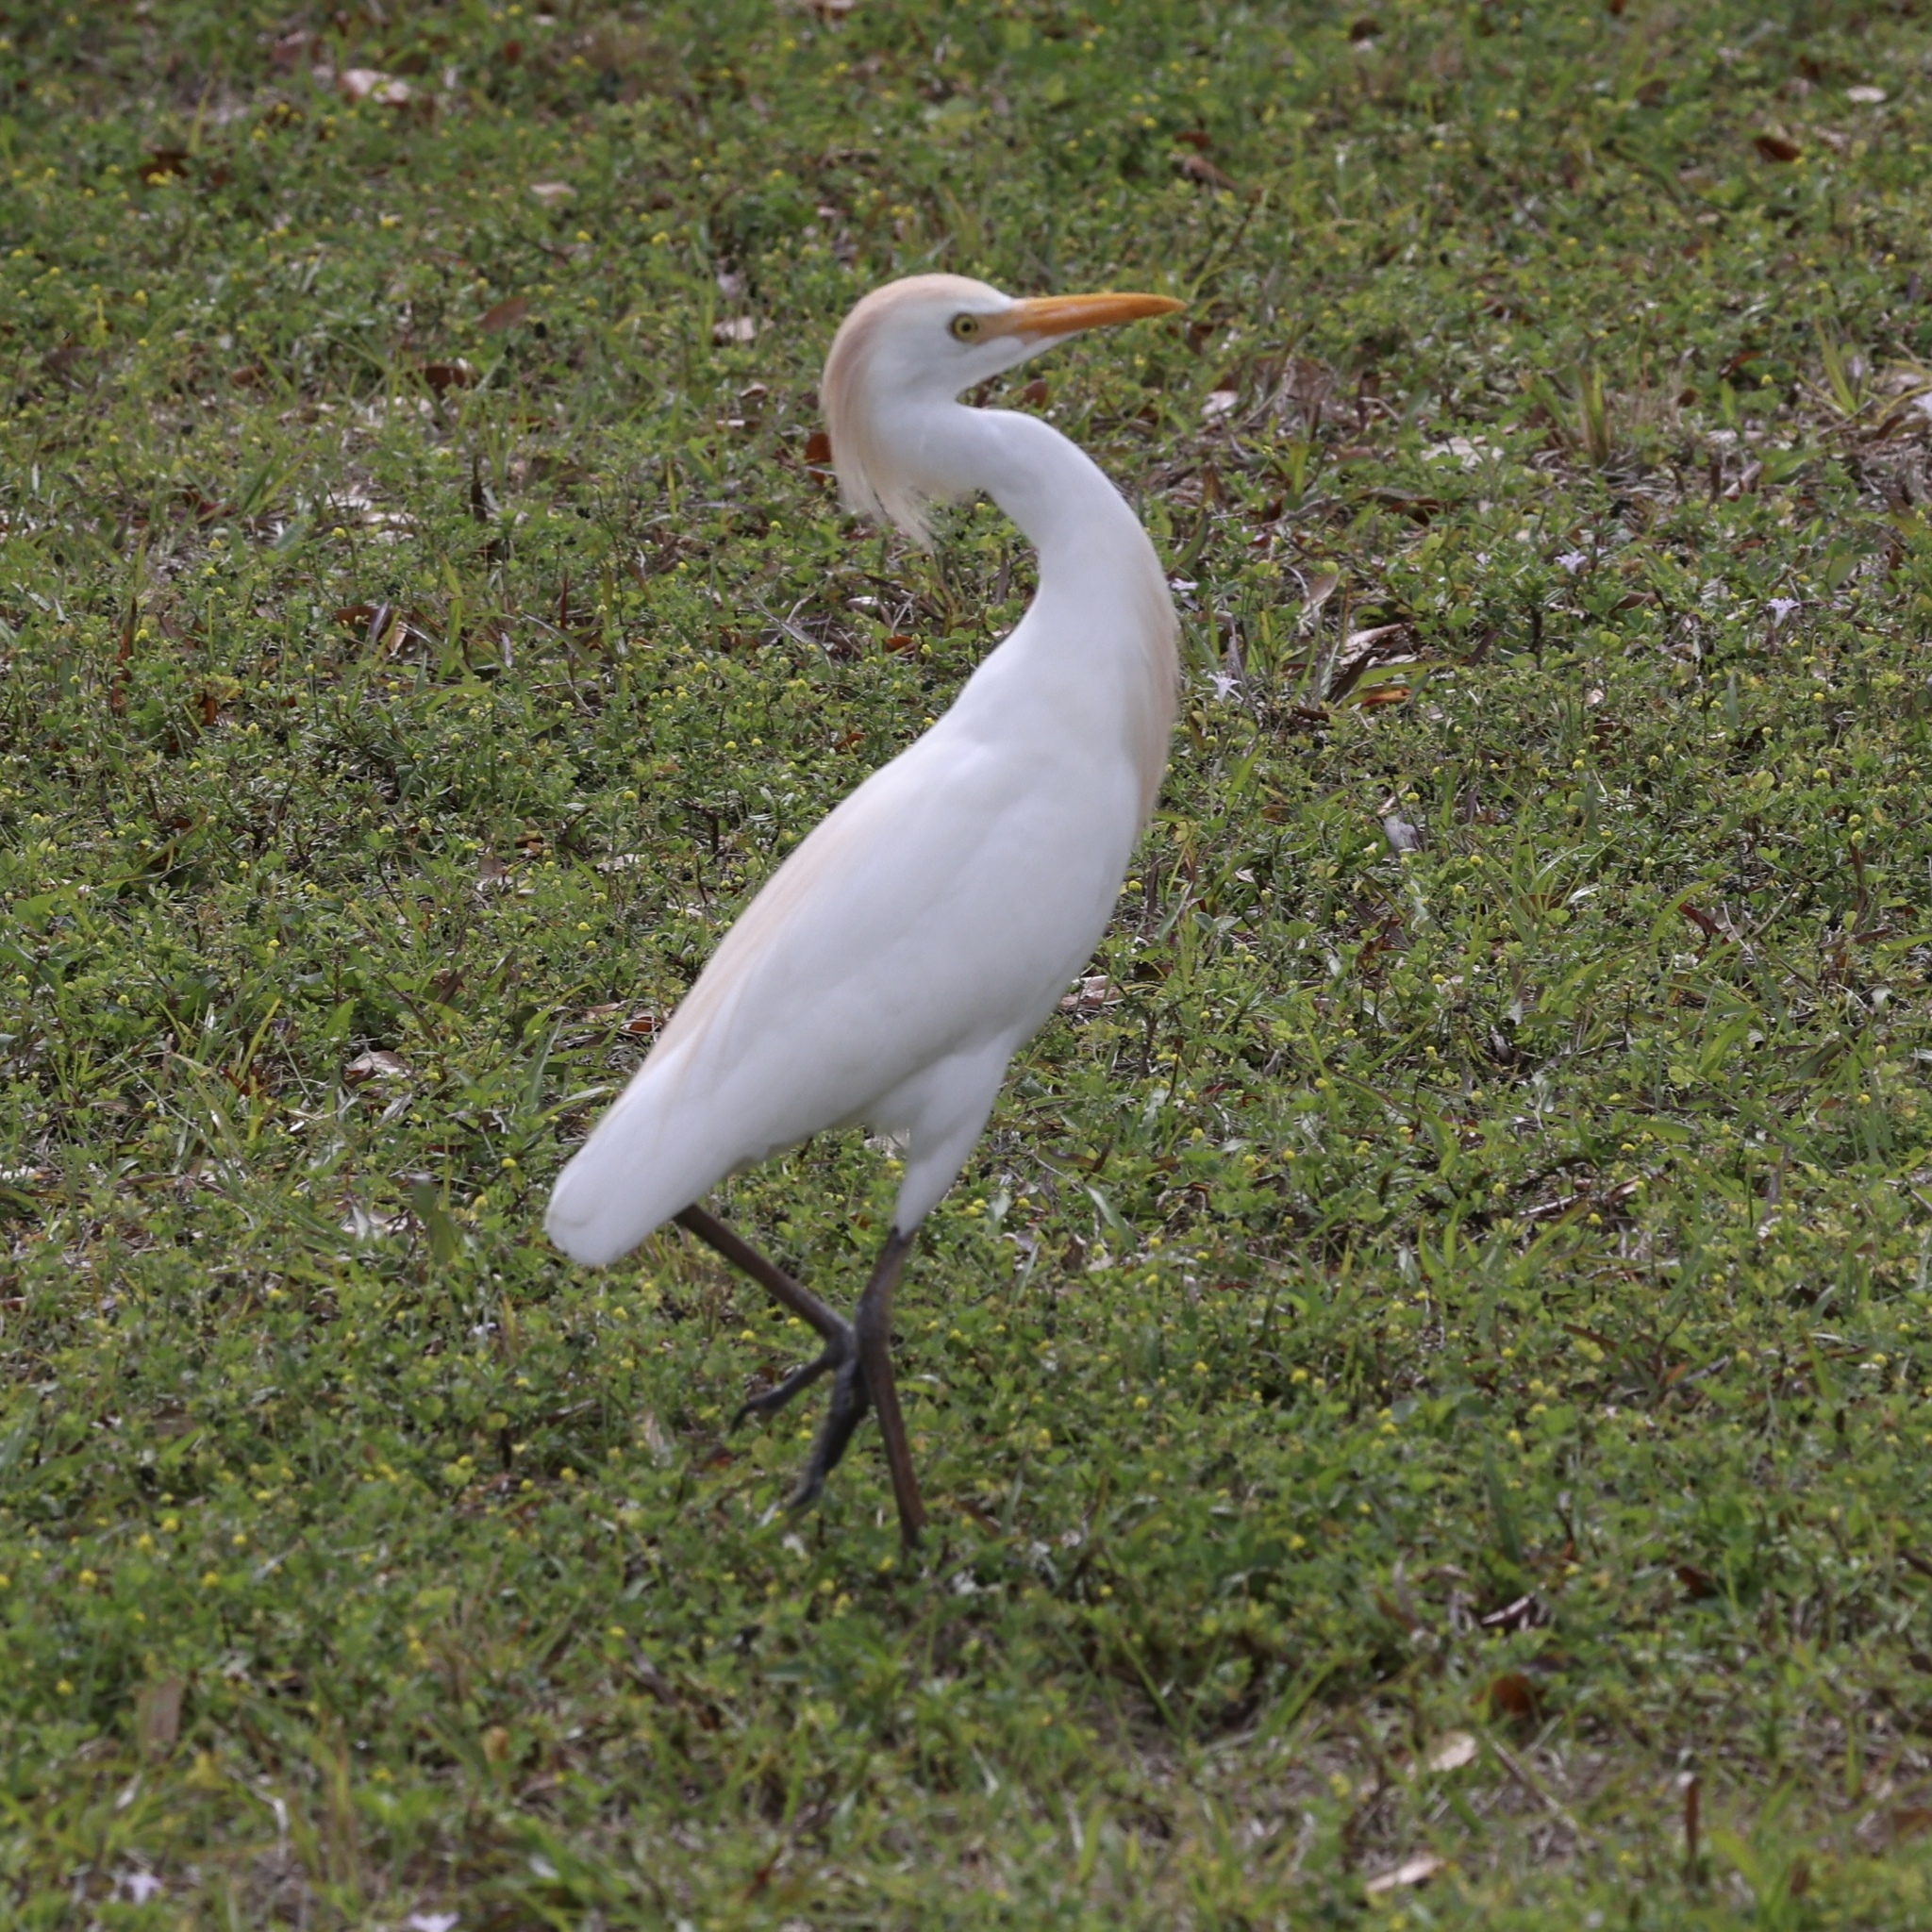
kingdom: Animalia
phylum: Chordata
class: Aves
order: Pelecaniformes
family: Ardeidae
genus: Bubulcus
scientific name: Bubulcus ibis
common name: Cattle egret
